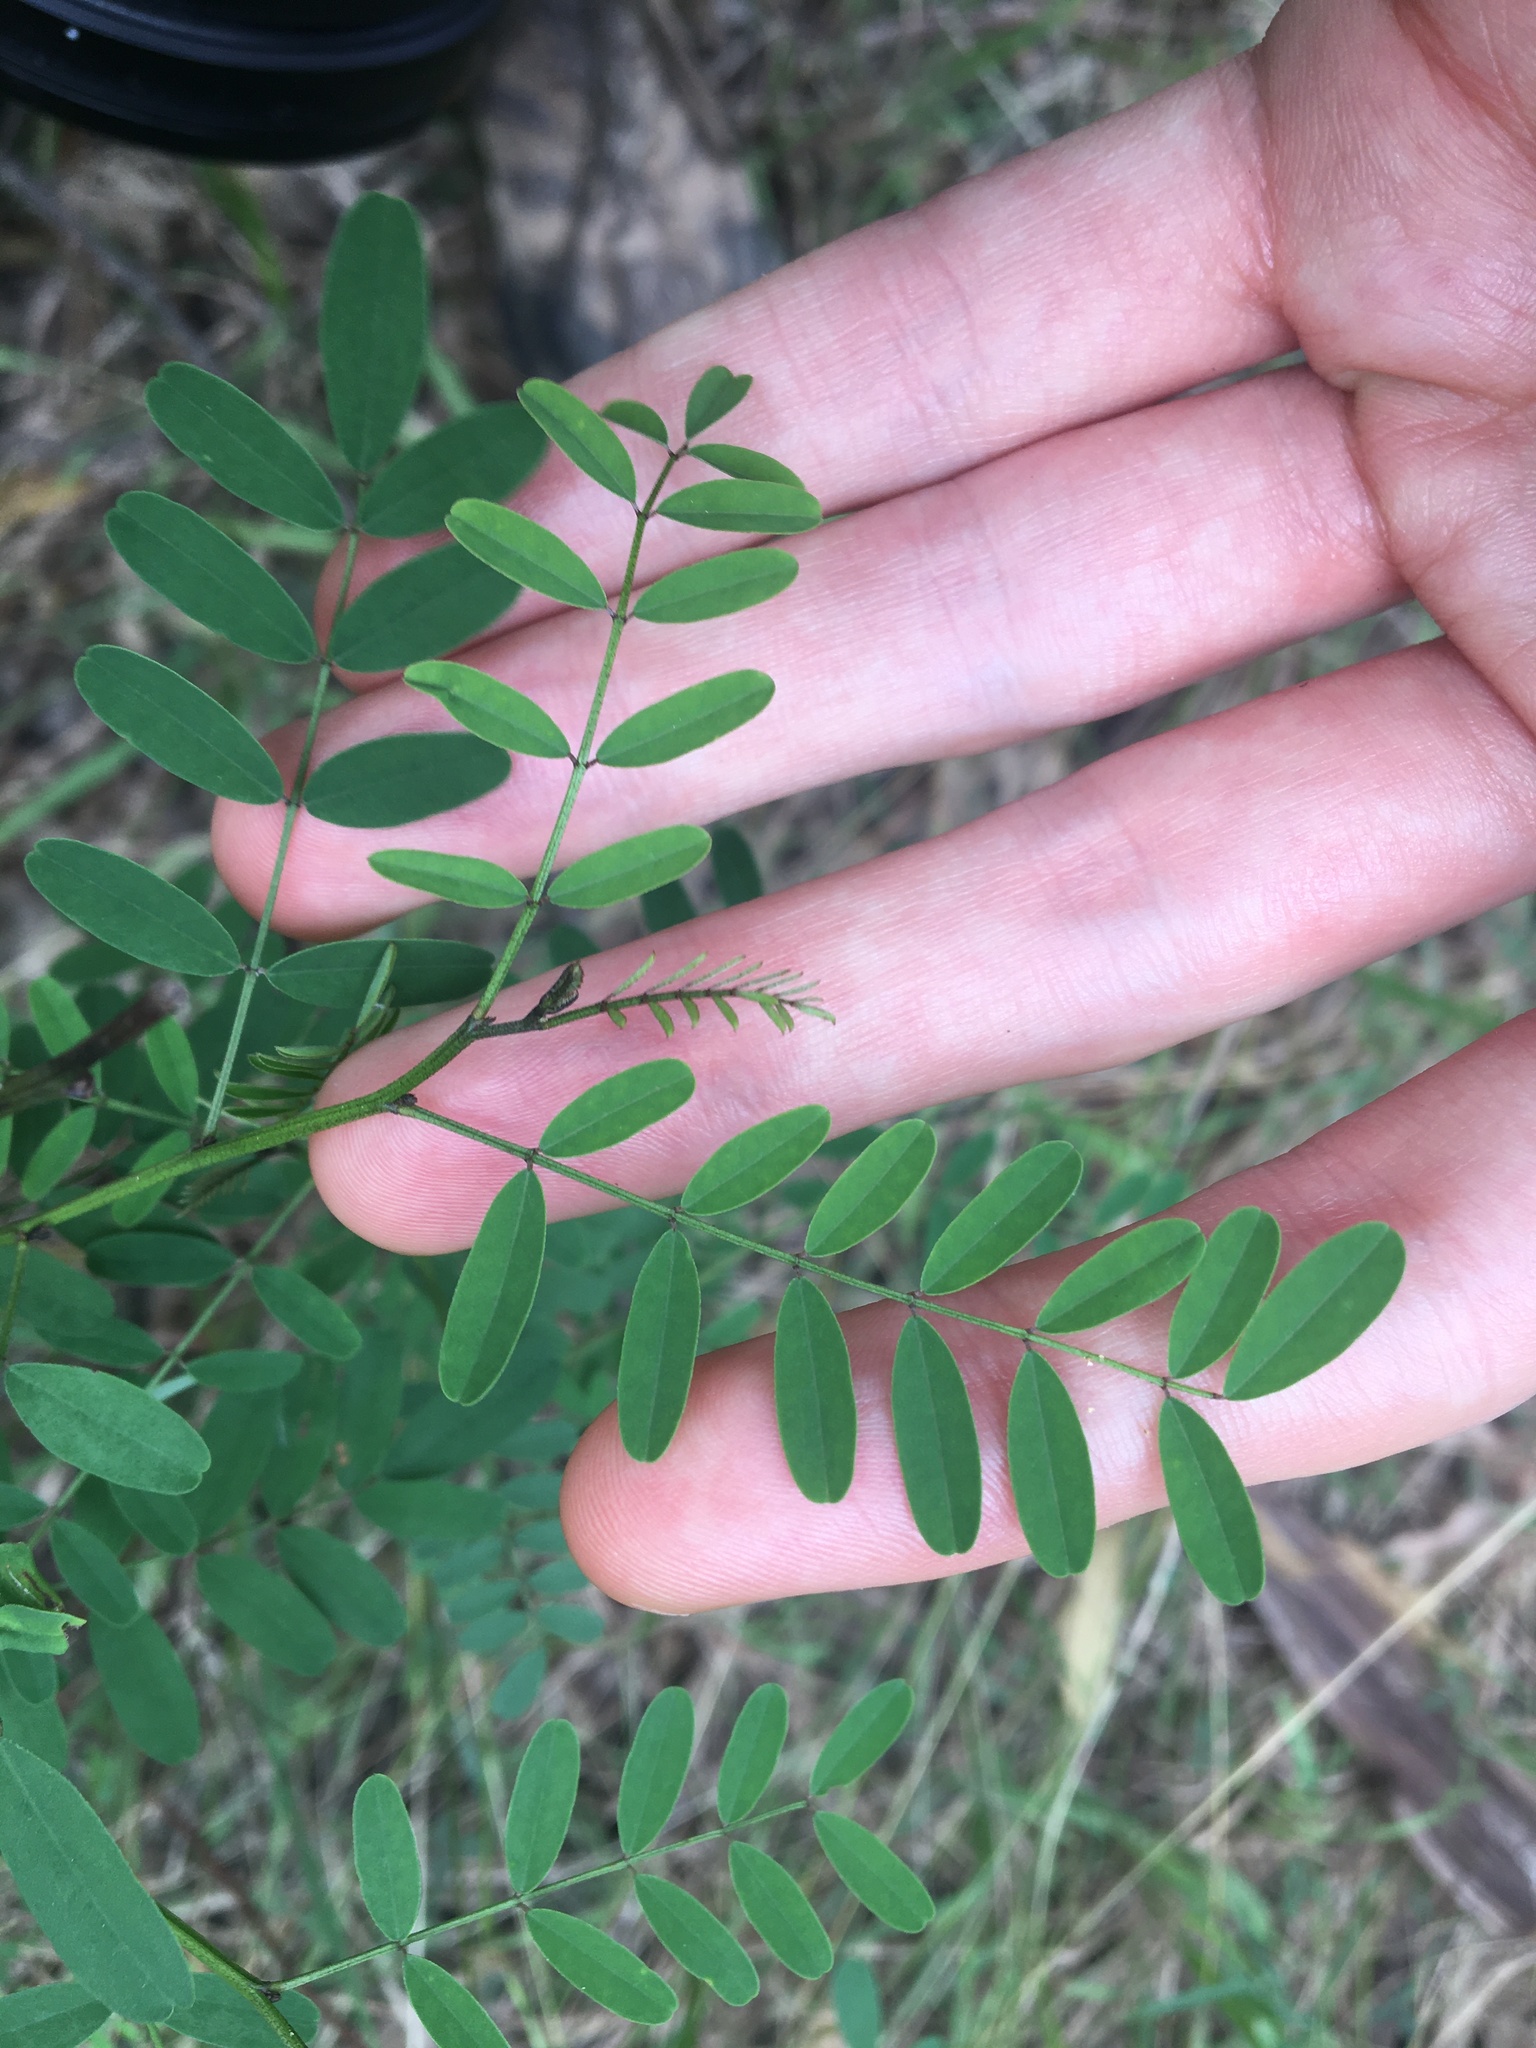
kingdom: Plantae
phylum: Tracheophyta
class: Magnoliopsida
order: Fabales
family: Fabaceae
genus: Indigofera
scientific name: Indigofera australis
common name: Australian indigo
